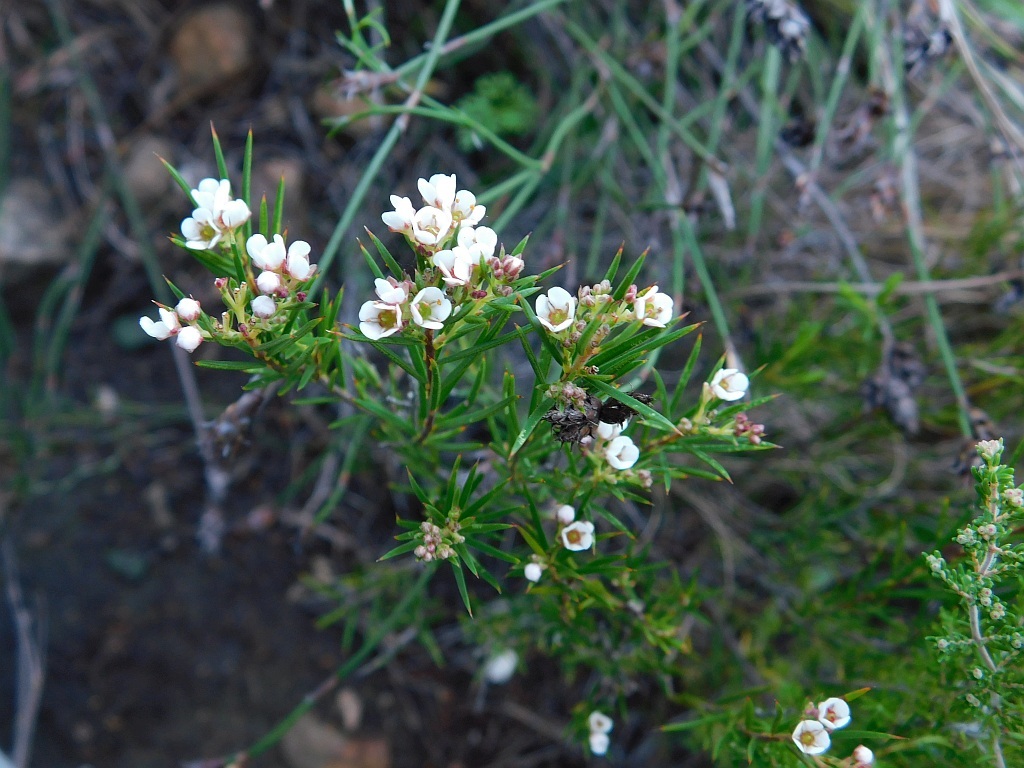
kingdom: Plantae
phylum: Tracheophyta
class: Magnoliopsida
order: Sapindales
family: Rutaceae
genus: Diosma
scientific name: Diosma hirsuta
